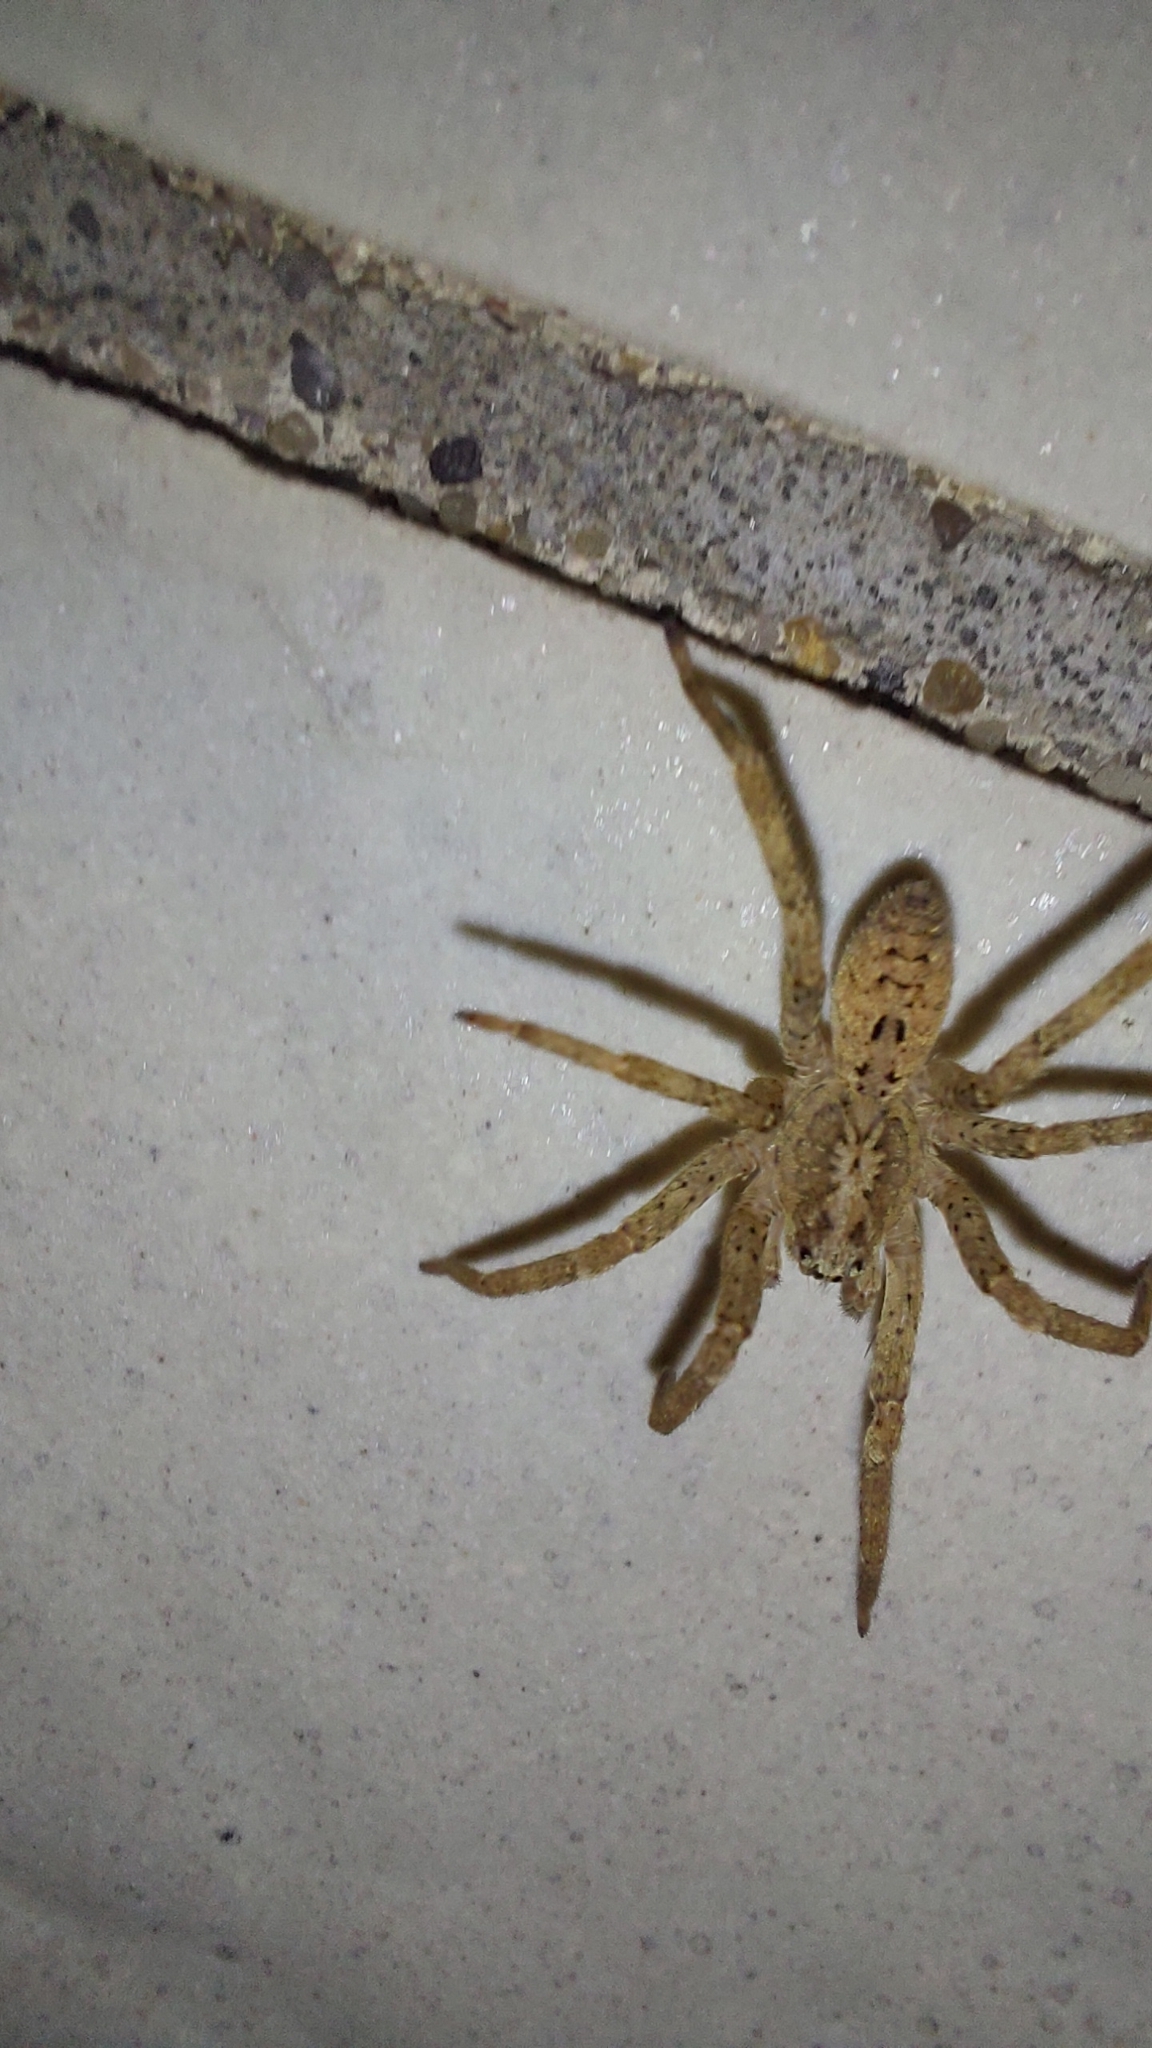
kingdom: Animalia
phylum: Arthropoda
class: Arachnida
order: Araneae
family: Zoropsidae
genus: Zoropsis
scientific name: Zoropsis spinimana
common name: Zoropsid spider
